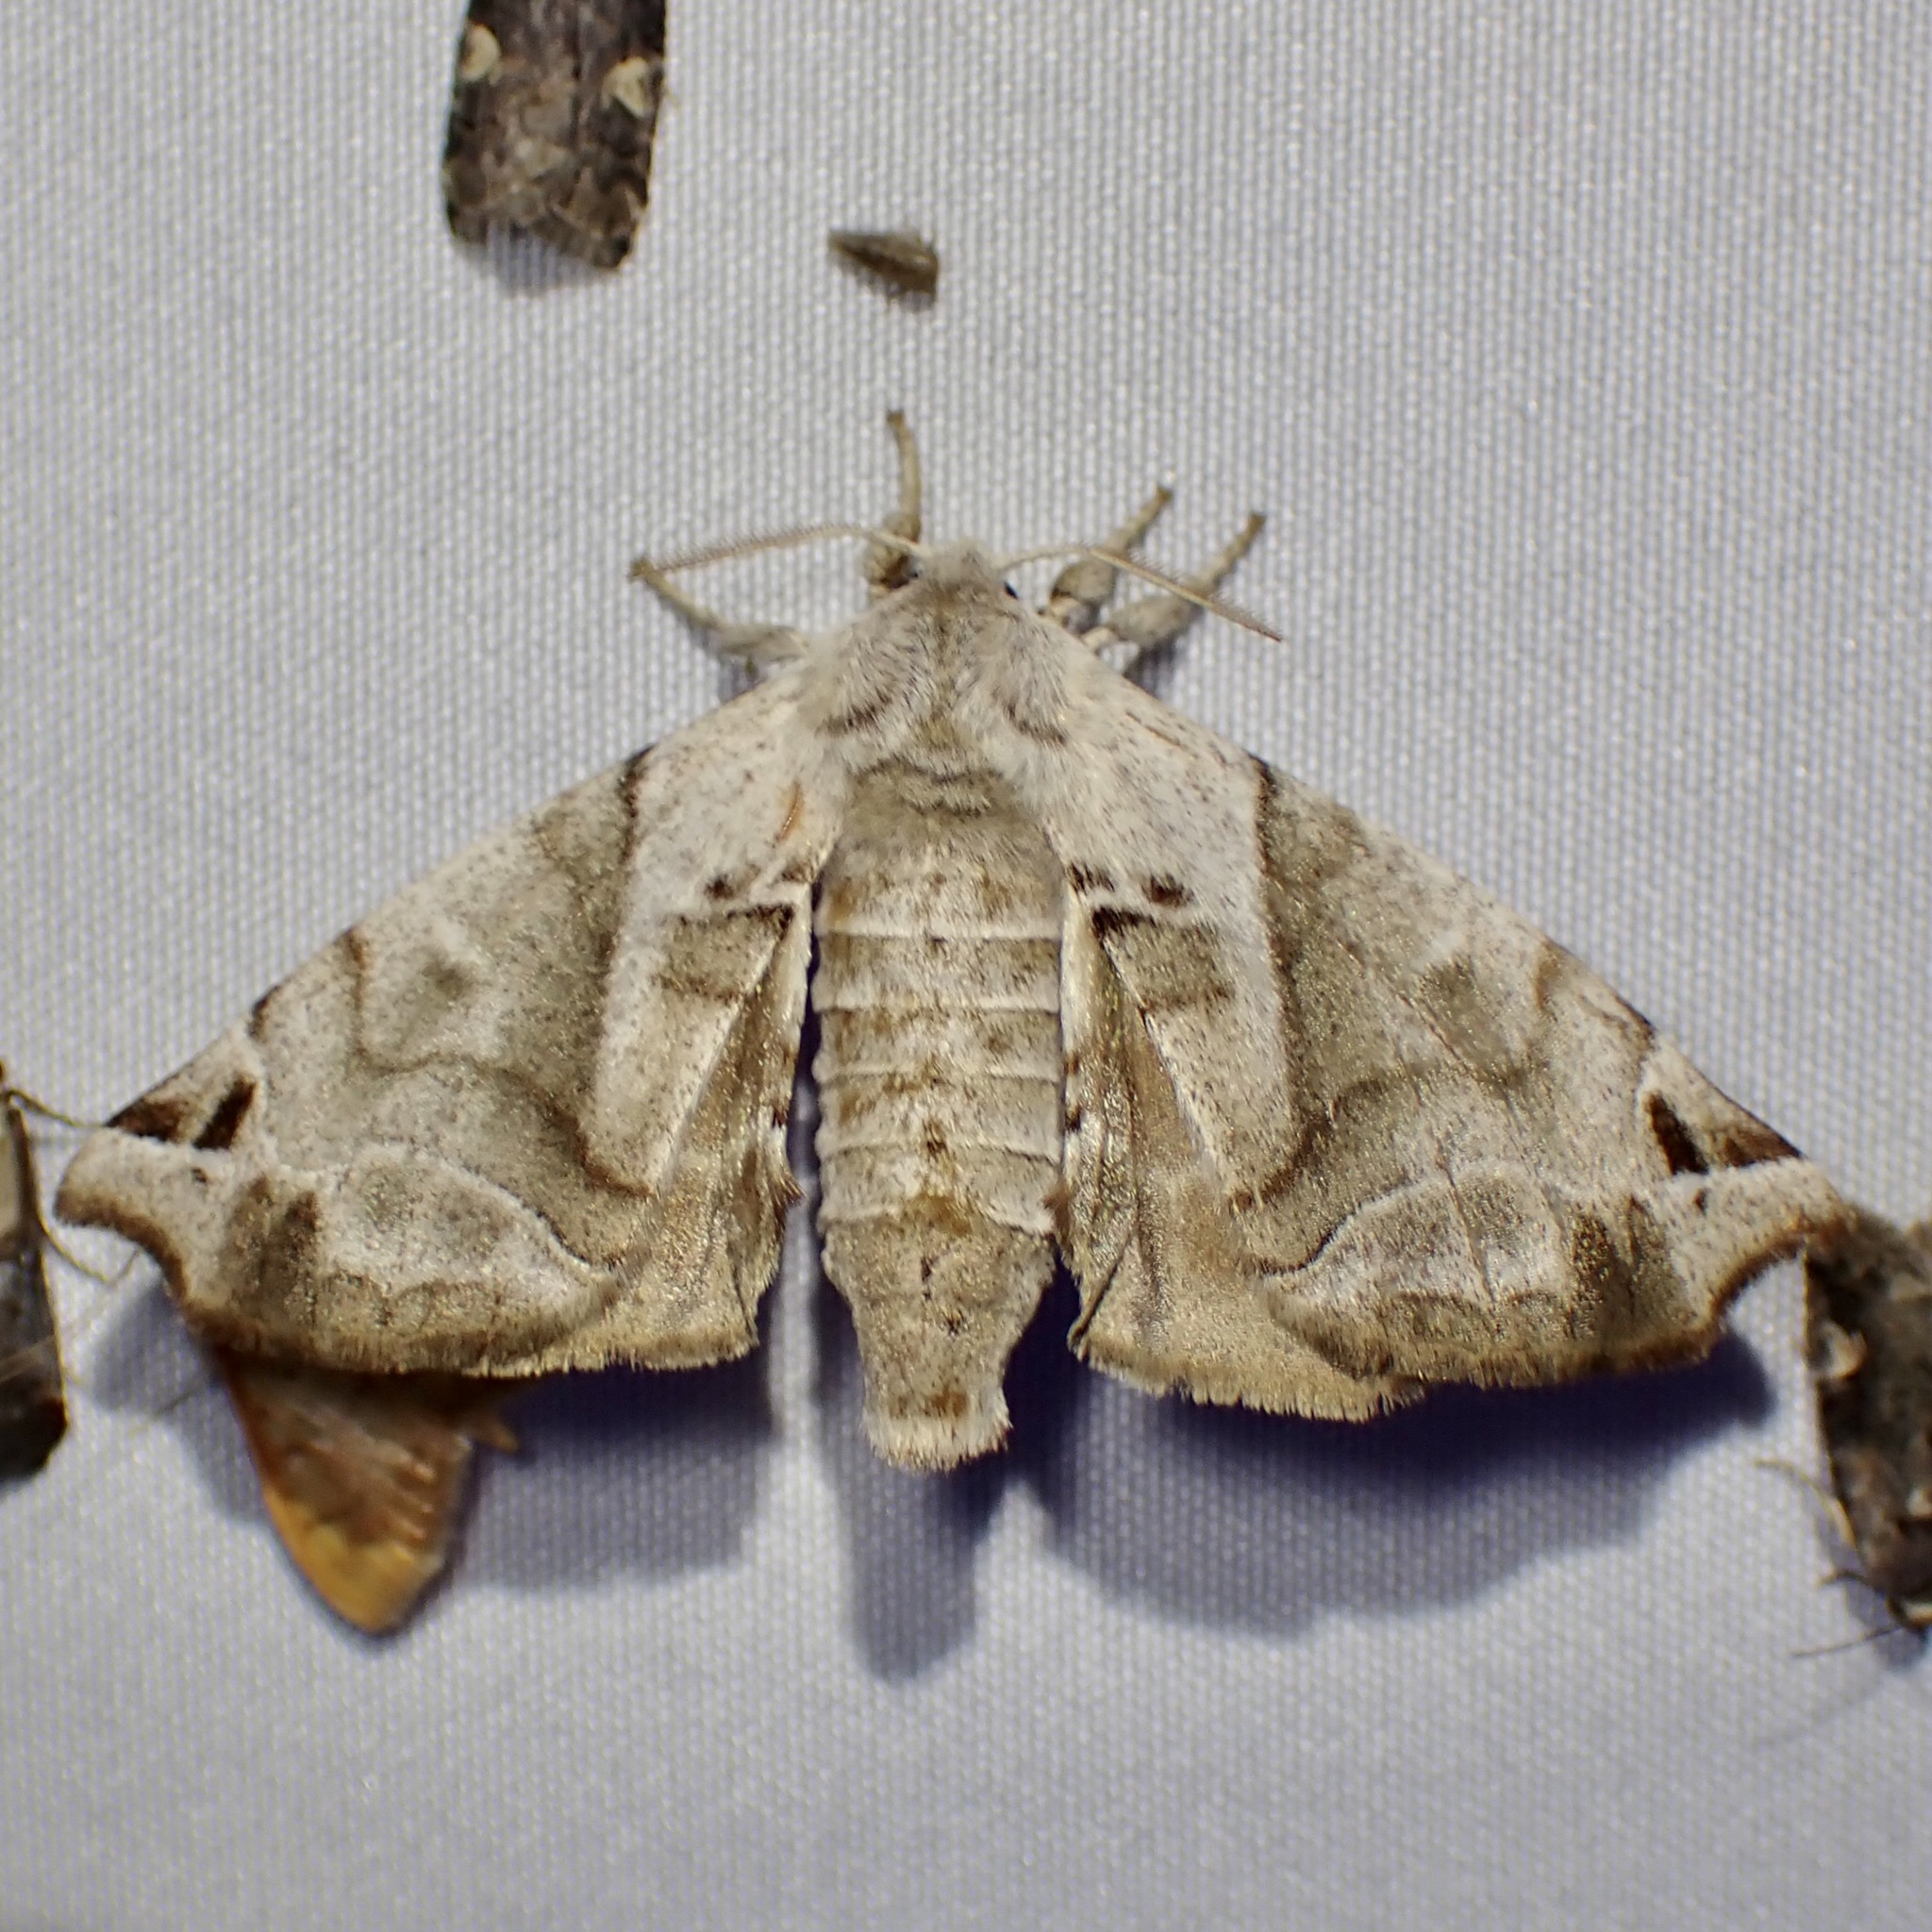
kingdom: Animalia
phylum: Arthropoda
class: Insecta
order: Lepidoptera
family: Apatelodidae
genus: Hygrochroa
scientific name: Hygrochroa Apatelodes pudefacta
